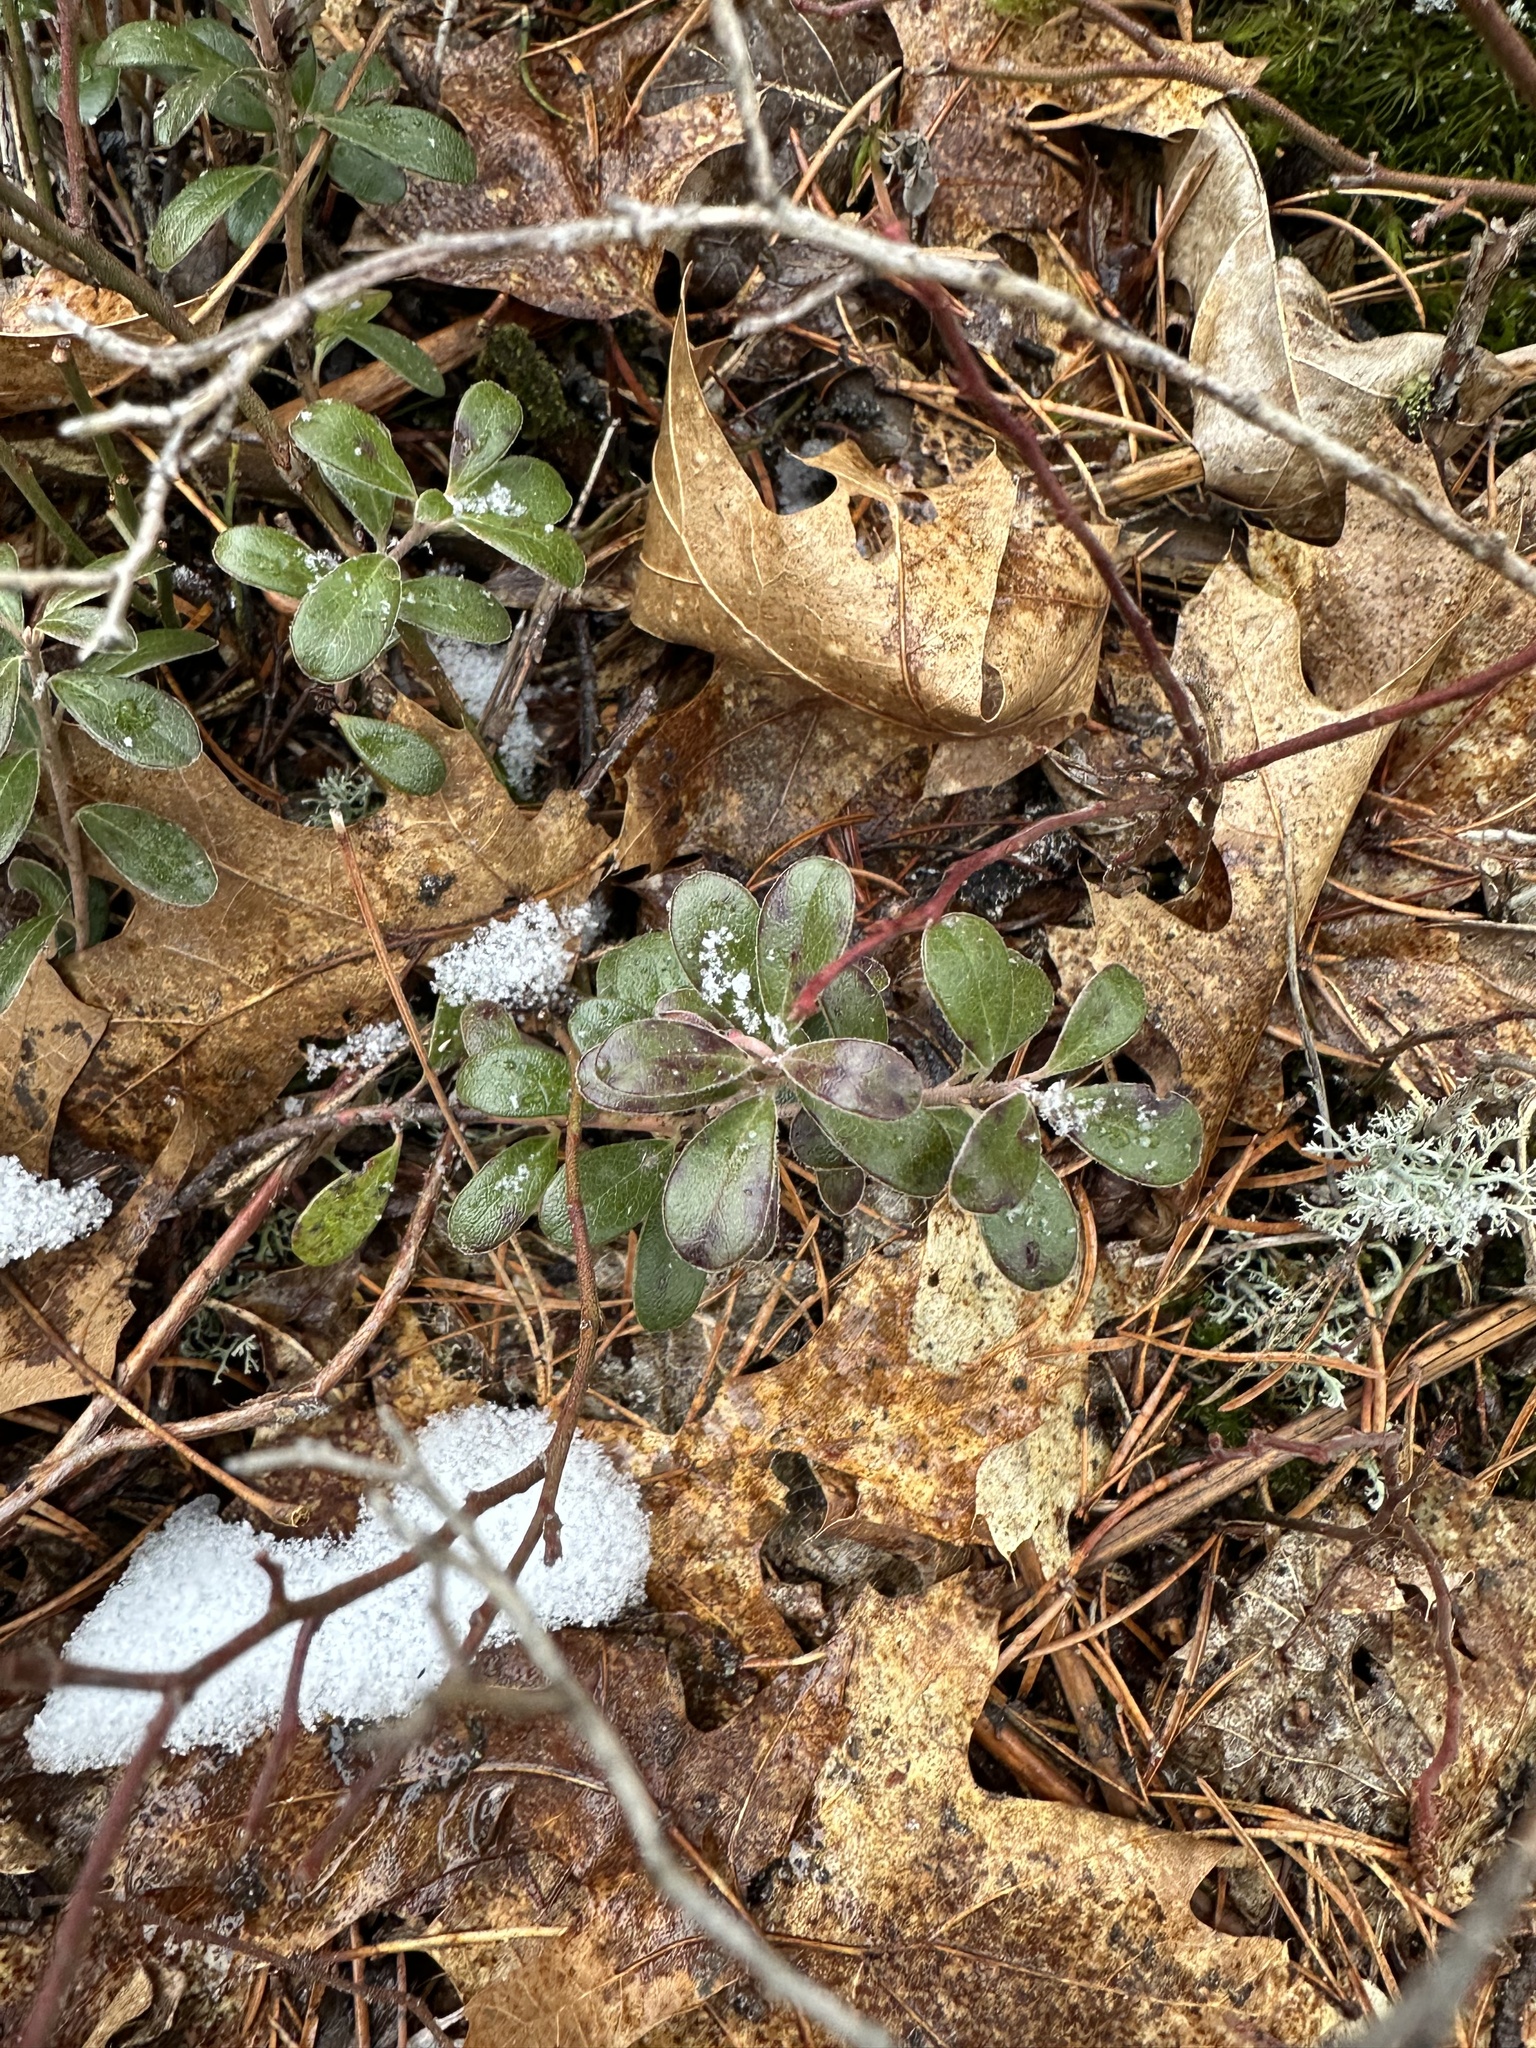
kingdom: Plantae
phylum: Tracheophyta
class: Magnoliopsida
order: Ericales
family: Ericaceae
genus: Arctostaphylos
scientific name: Arctostaphylos uva-ursi
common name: Bearberry
